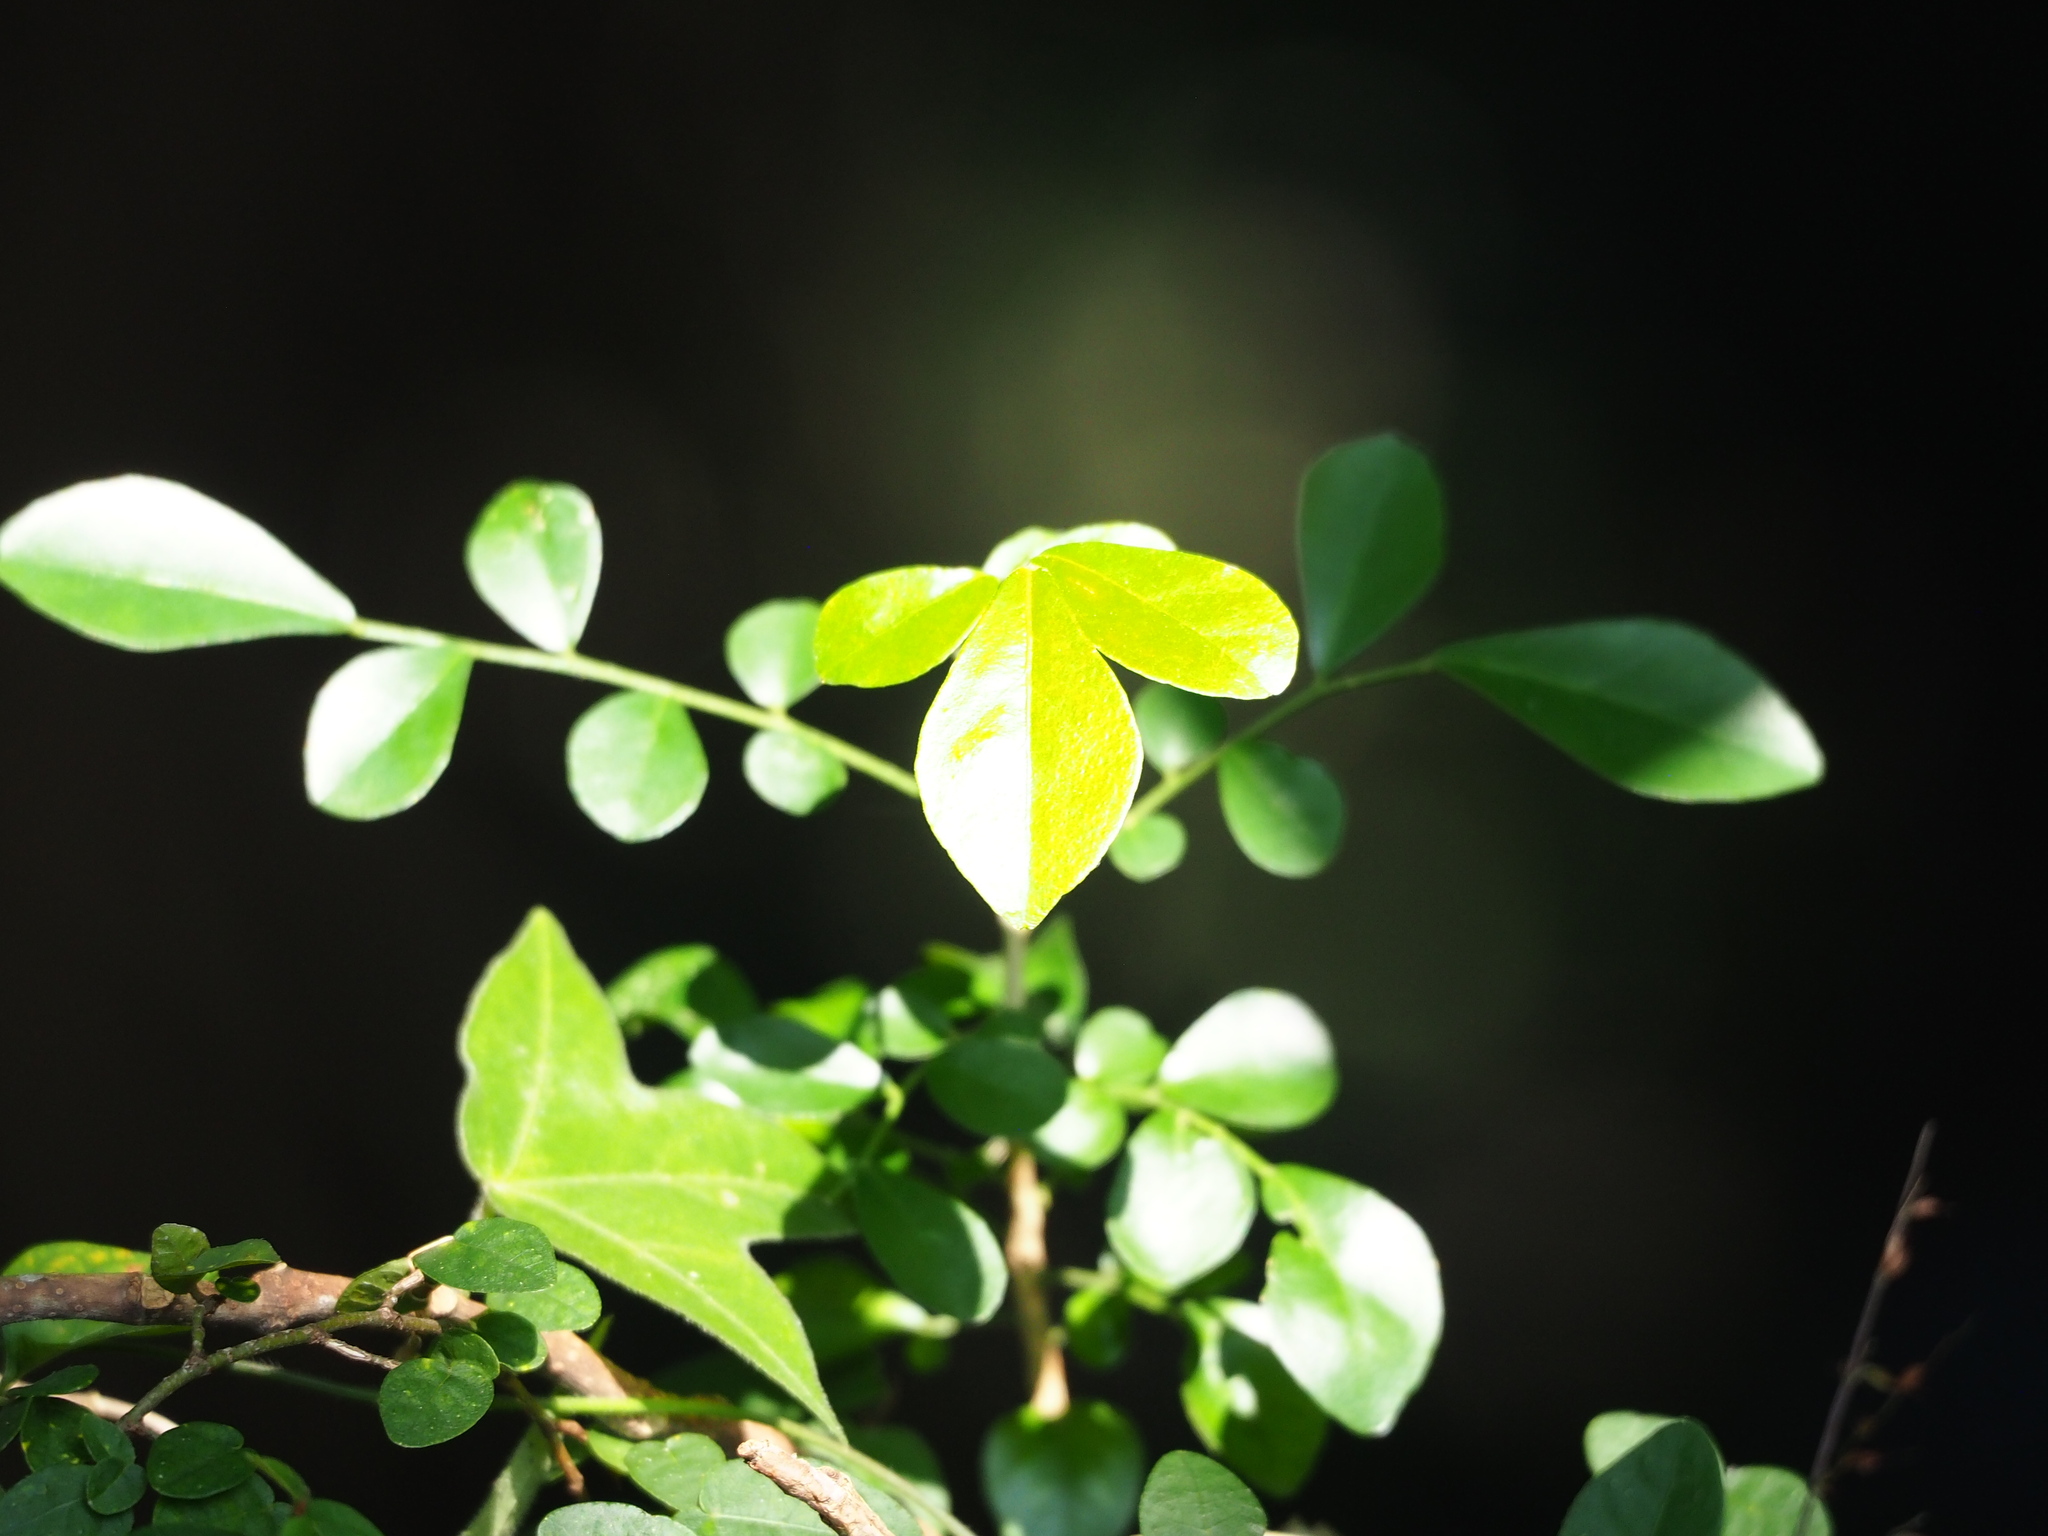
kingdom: Plantae
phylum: Tracheophyta
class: Magnoliopsida
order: Sapindales
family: Rutaceae
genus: Murraya
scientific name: Murraya paniculata
